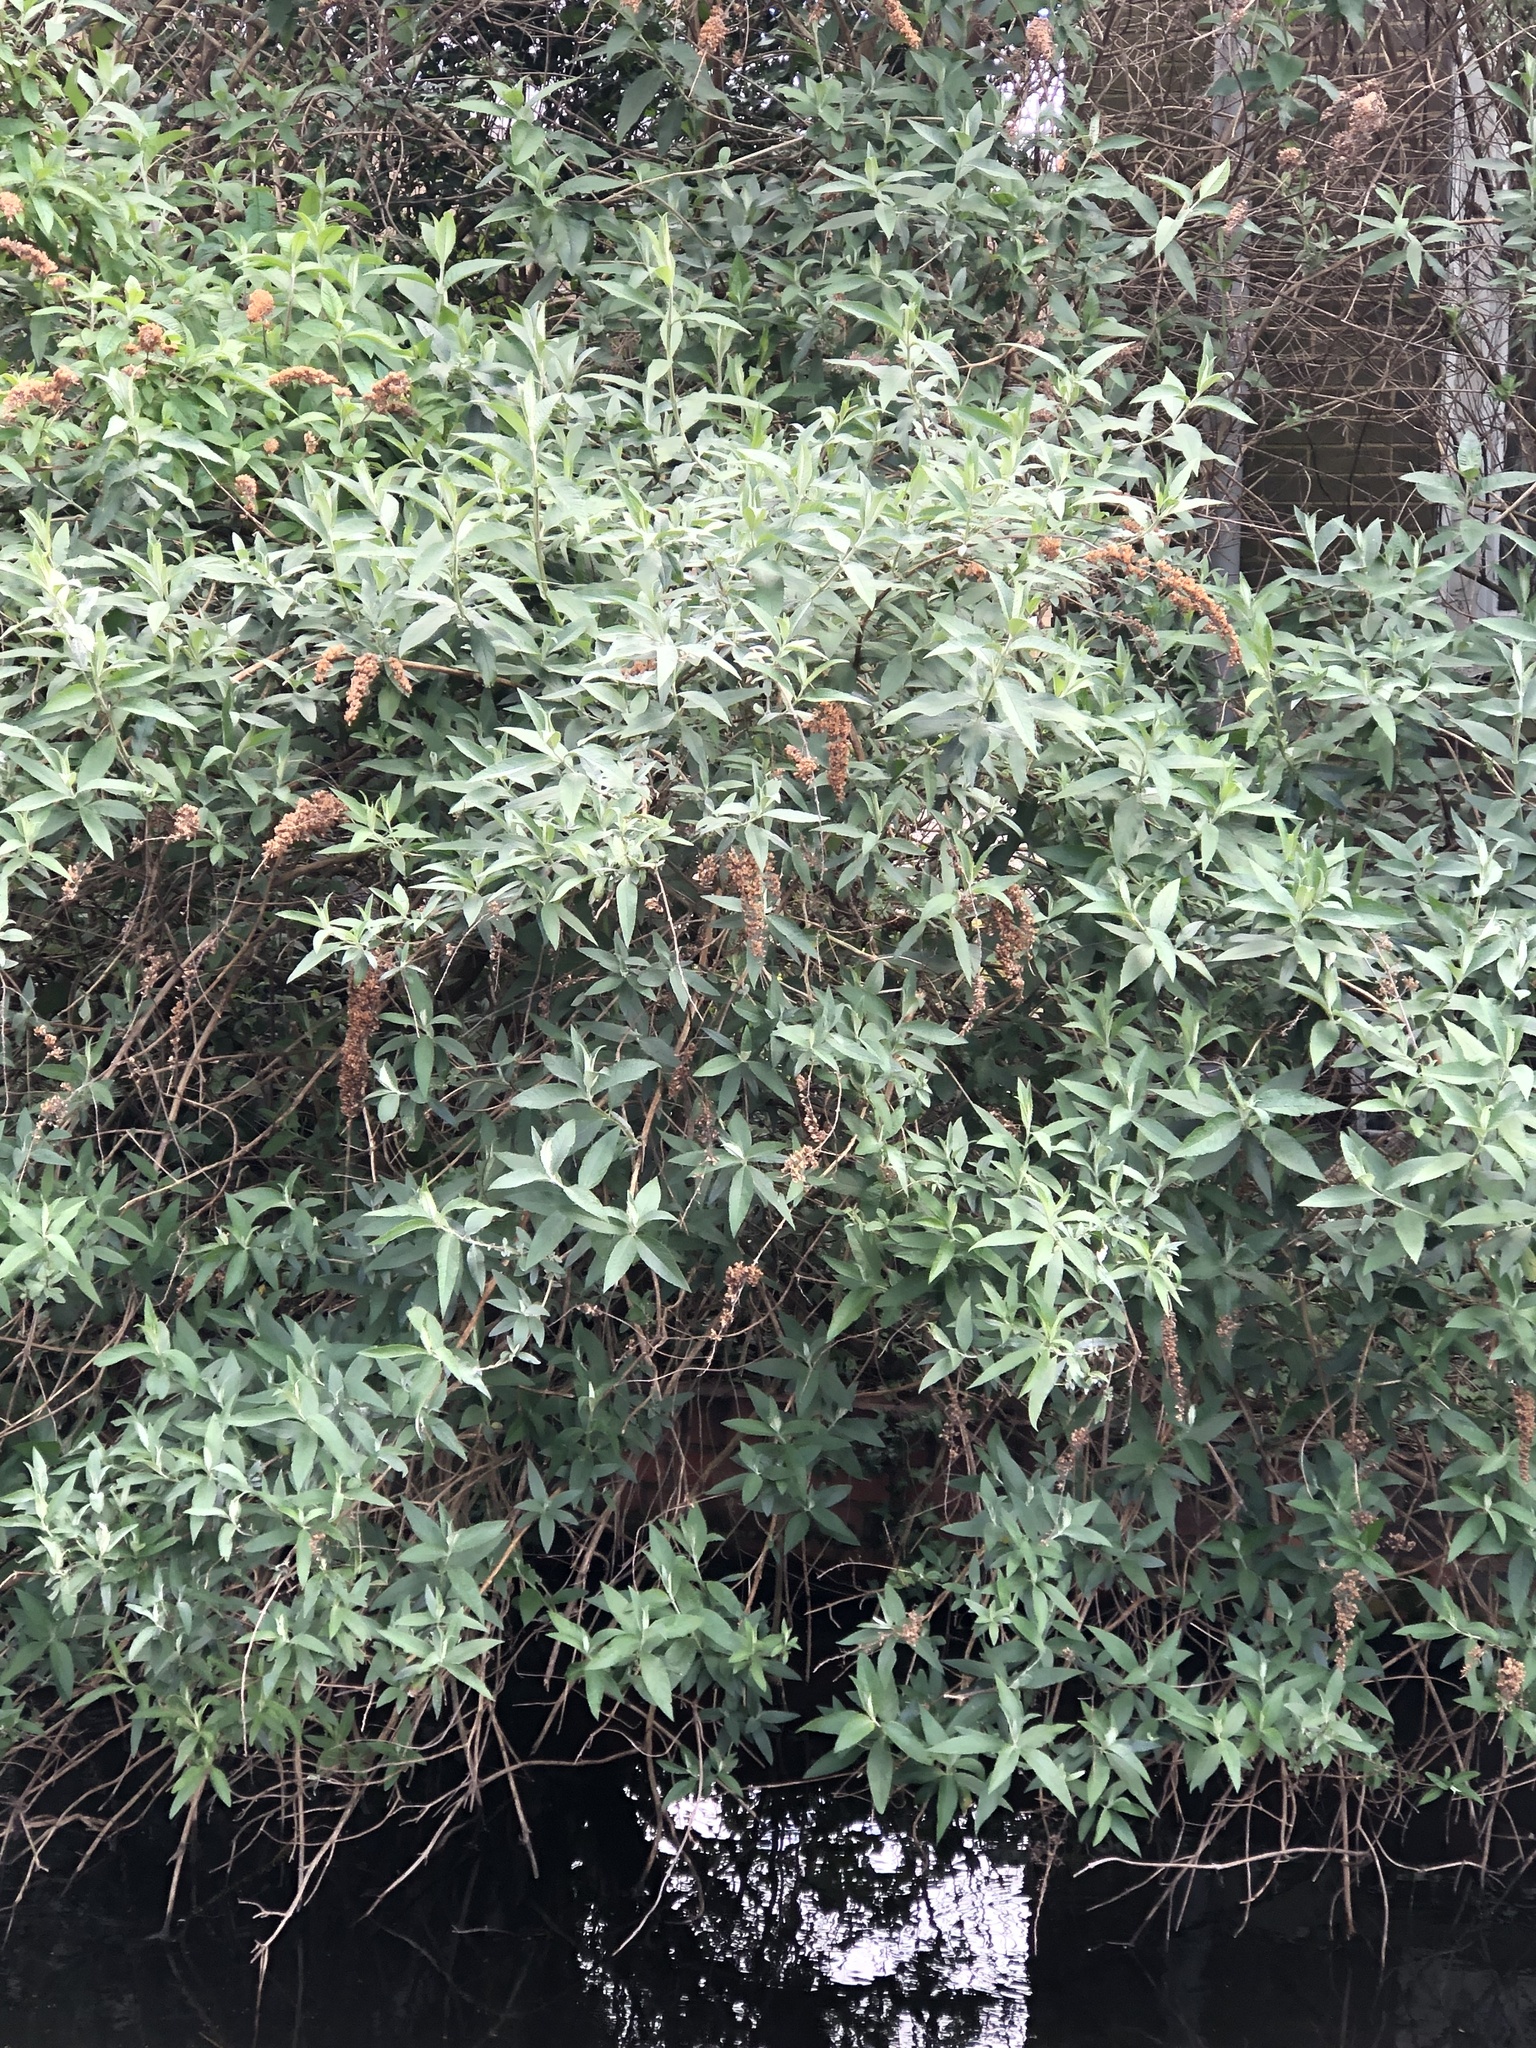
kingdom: Plantae
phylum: Tracheophyta
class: Magnoliopsida
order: Lamiales
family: Scrophulariaceae
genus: Buddleja
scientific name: Buddleja davidii
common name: Butterfly-bush
